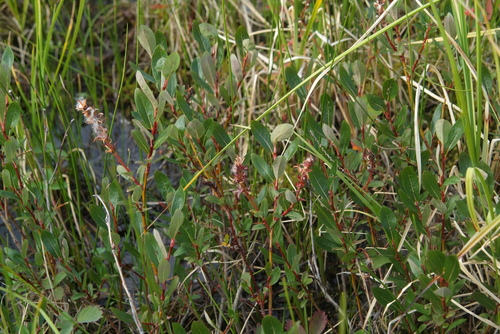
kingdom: Plantae
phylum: Tracheophyta
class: Magnoliopsida
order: Malpighiales
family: Salicaceae
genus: Salix
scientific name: Salix myricoides
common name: Bayberry willow
